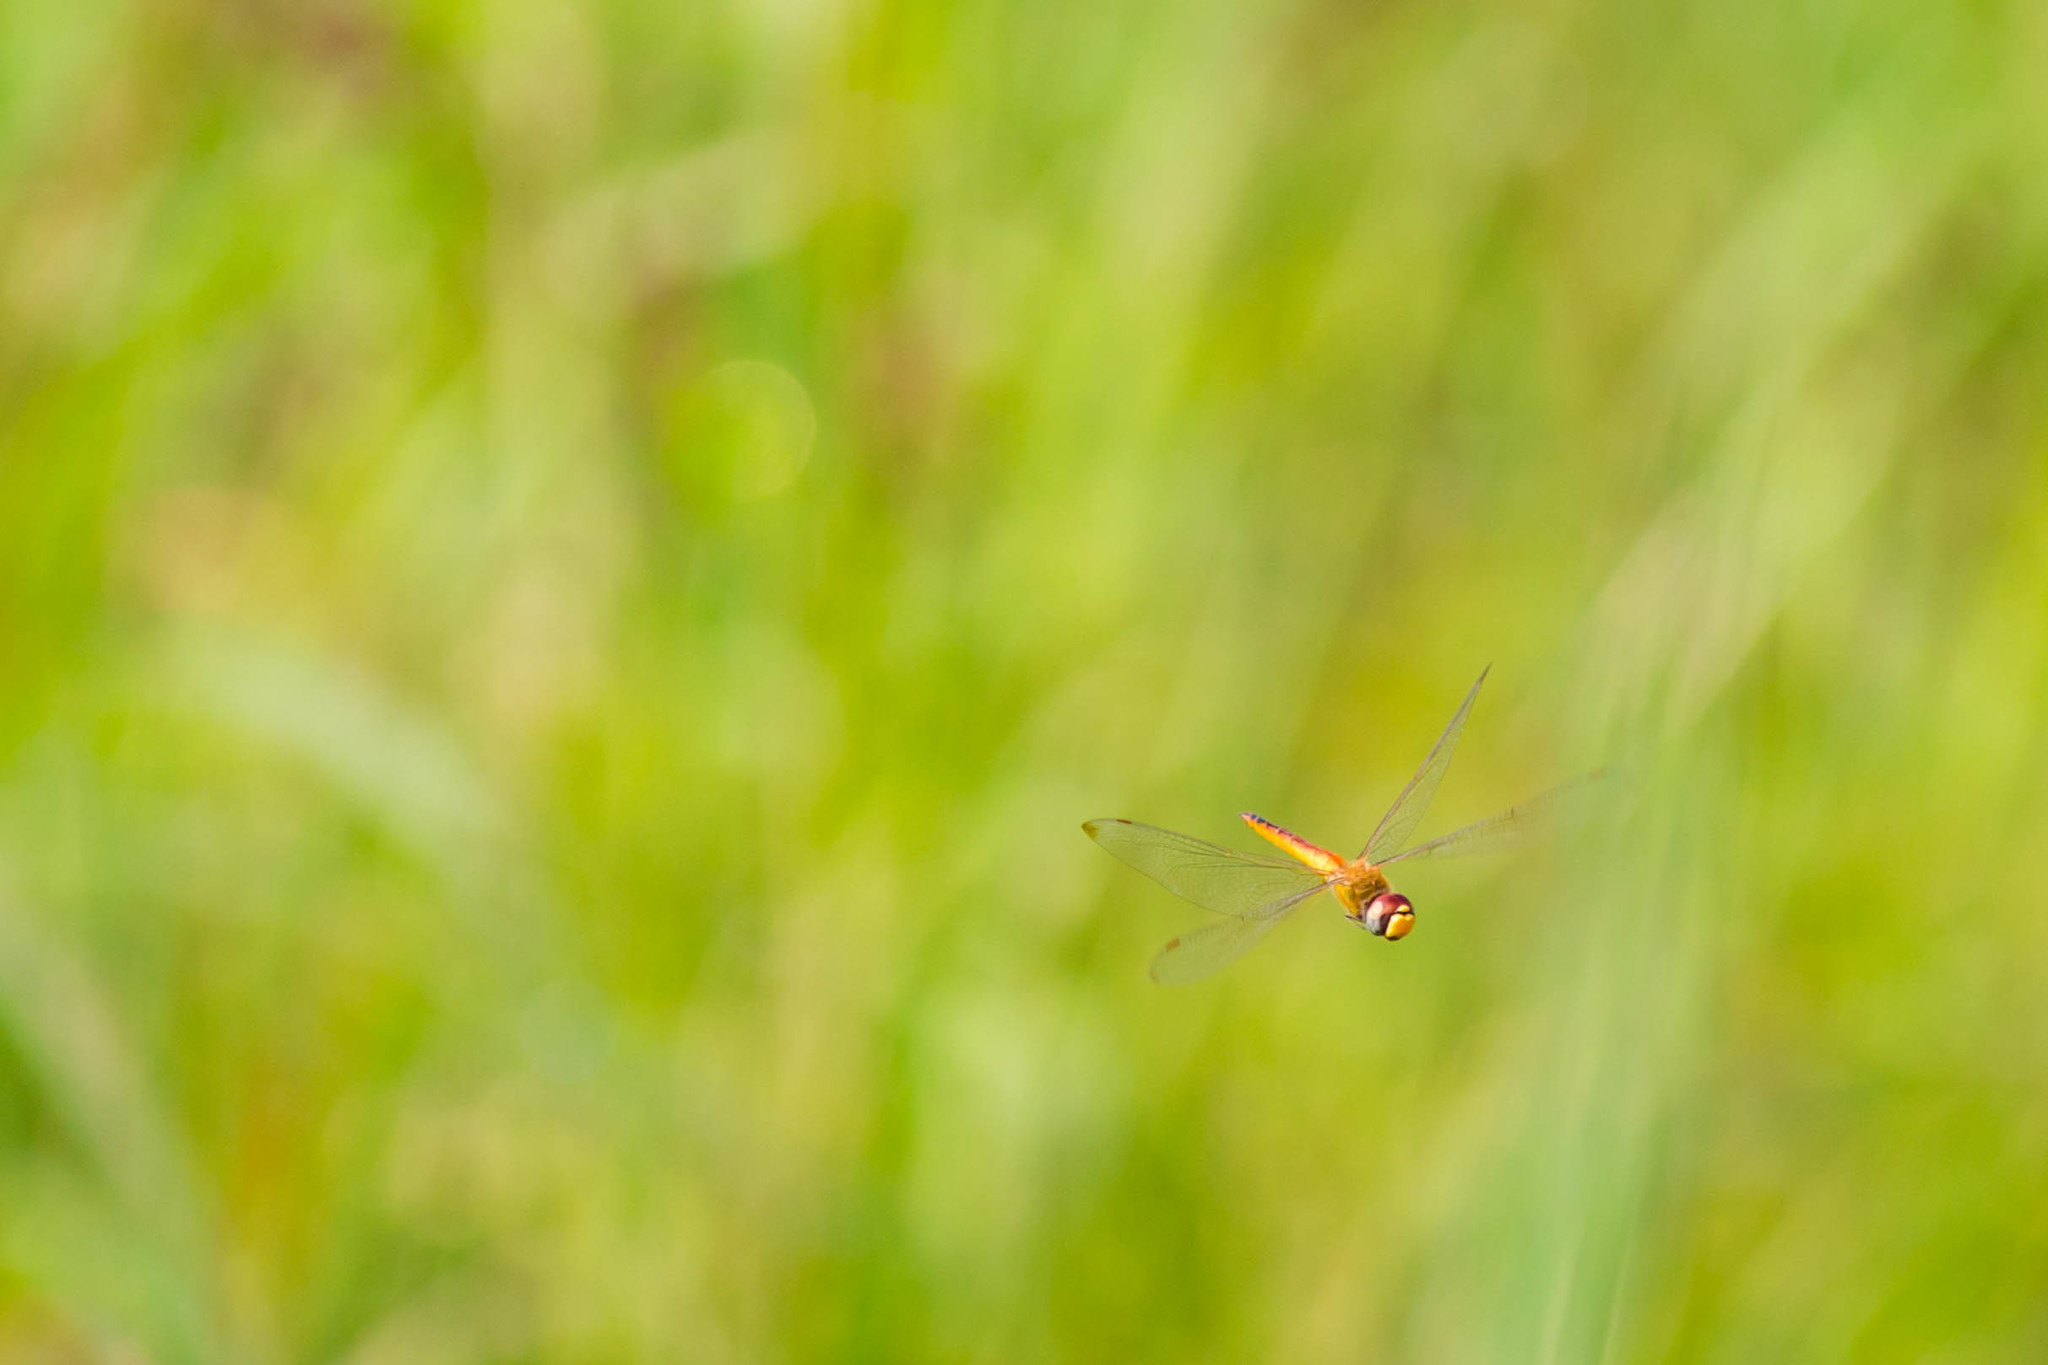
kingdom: Animalia
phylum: Arthropoda
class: Insecta
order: Odonata
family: Libellulidae
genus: Pantala
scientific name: Pantala flavescens
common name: Wandering glider
